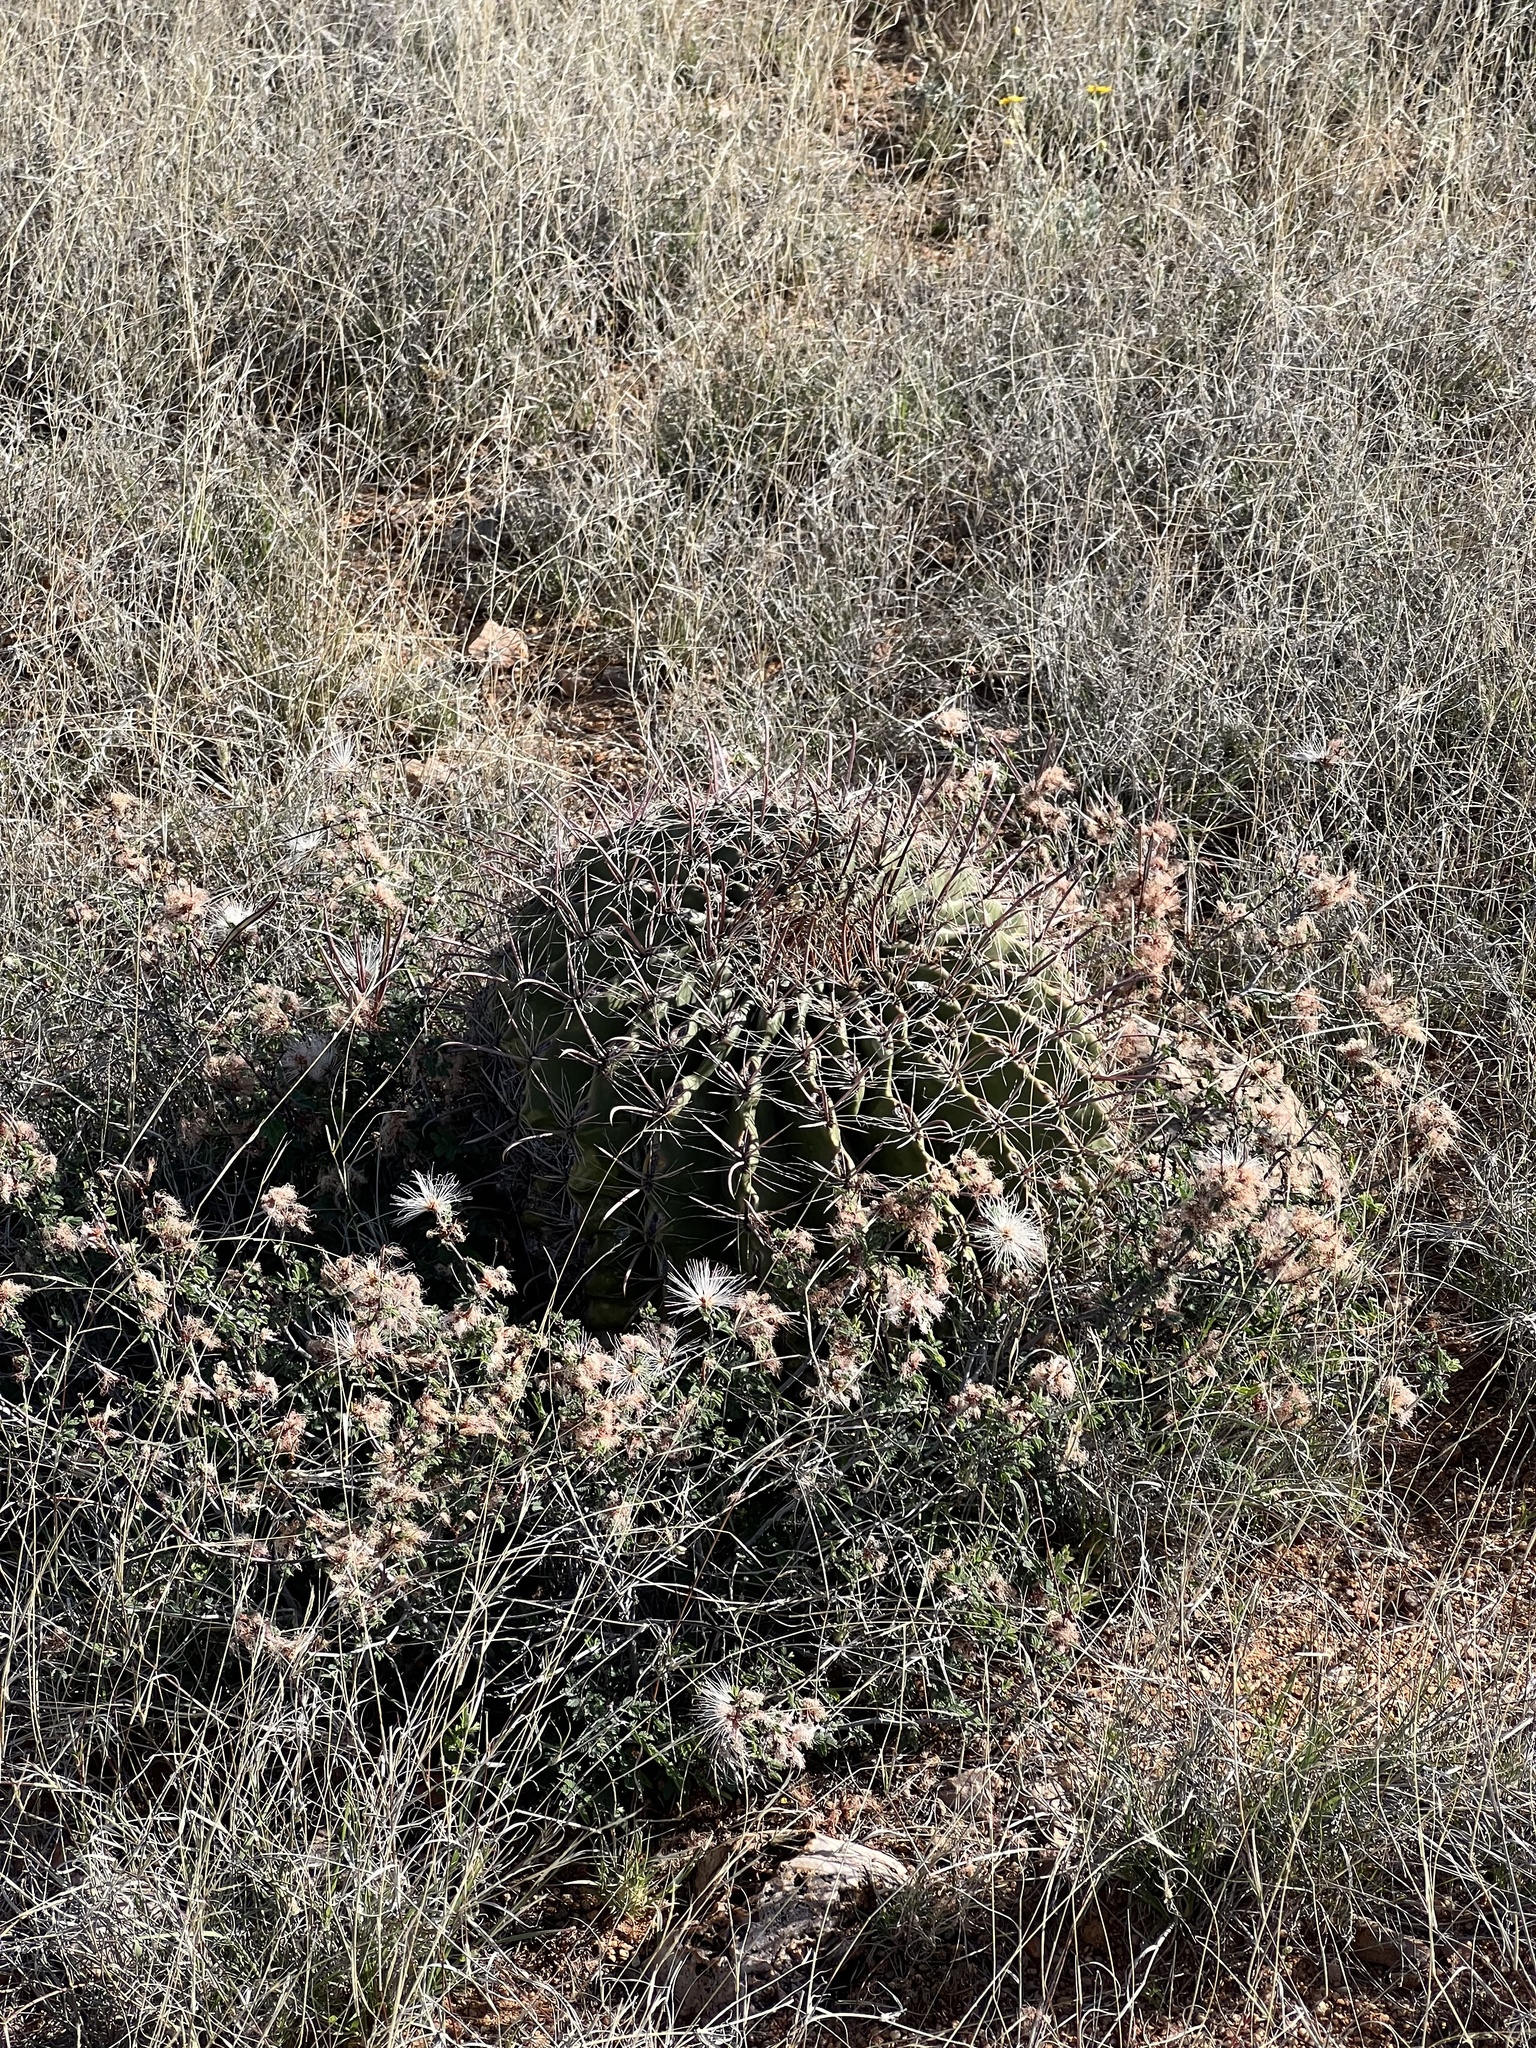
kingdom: Plantae
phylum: Tracheophyta
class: Magnoliopsida
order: Caryophyllales
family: Cactaceae
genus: Ferocactus
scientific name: Ferocactus wislizeni
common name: Candy barrel cactus
